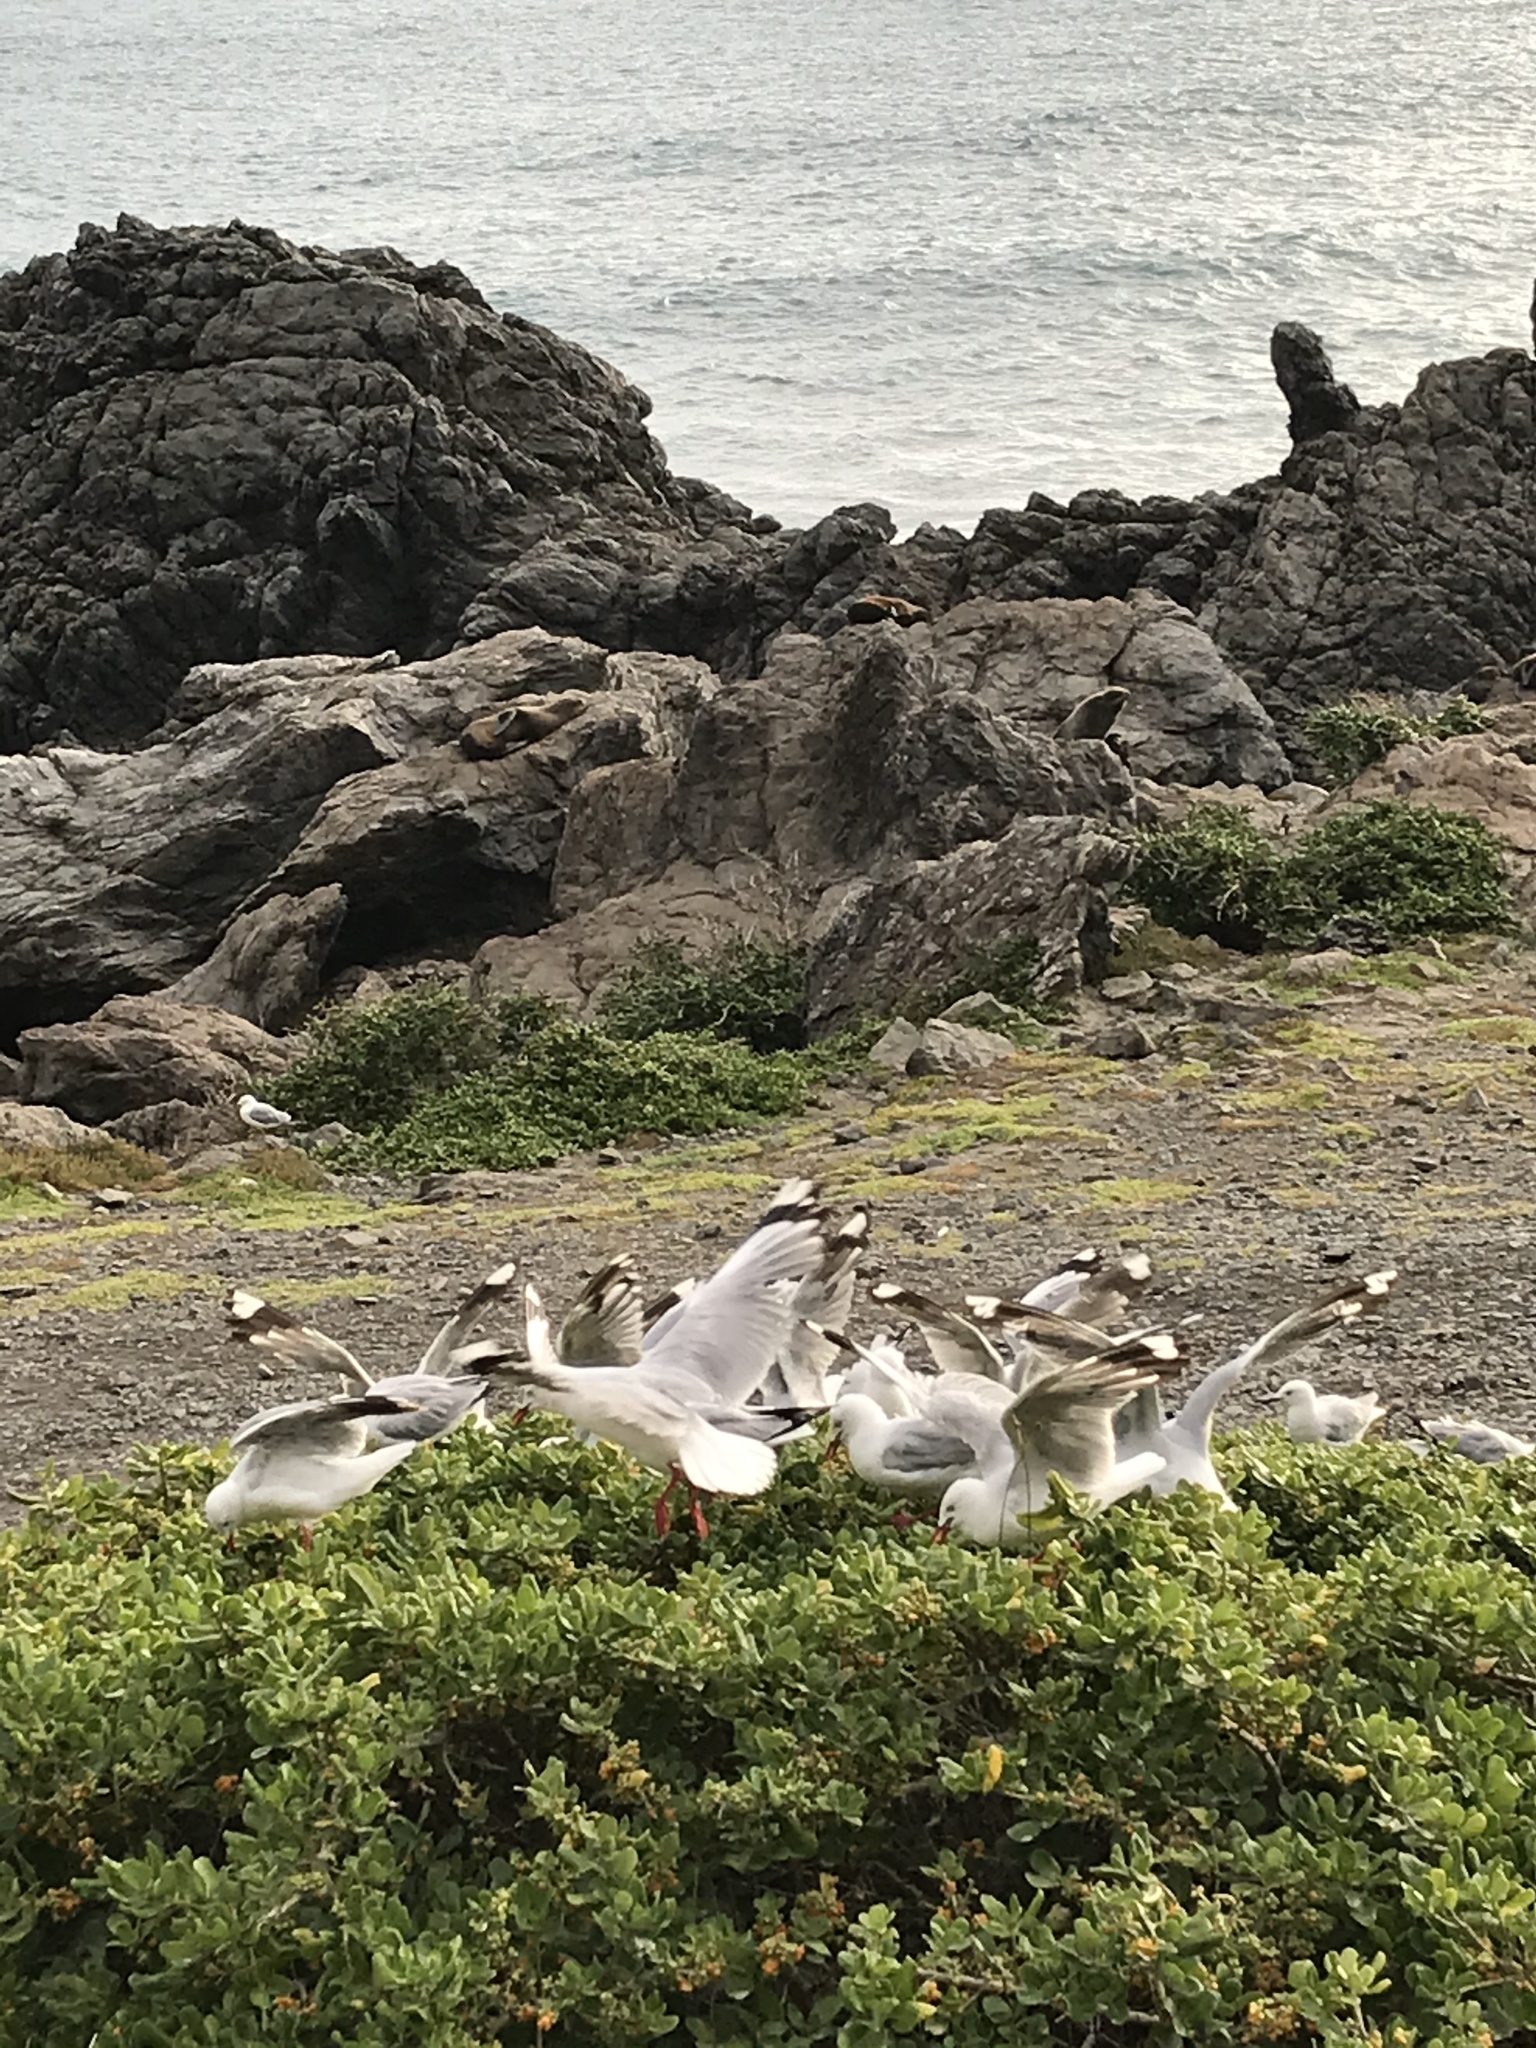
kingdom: Animalia
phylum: Chordata
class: Aves
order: Charadriiformes
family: Laridae
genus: Chroicocephalus
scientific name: Chroicocephalus novaehollandiae
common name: Silver gull
